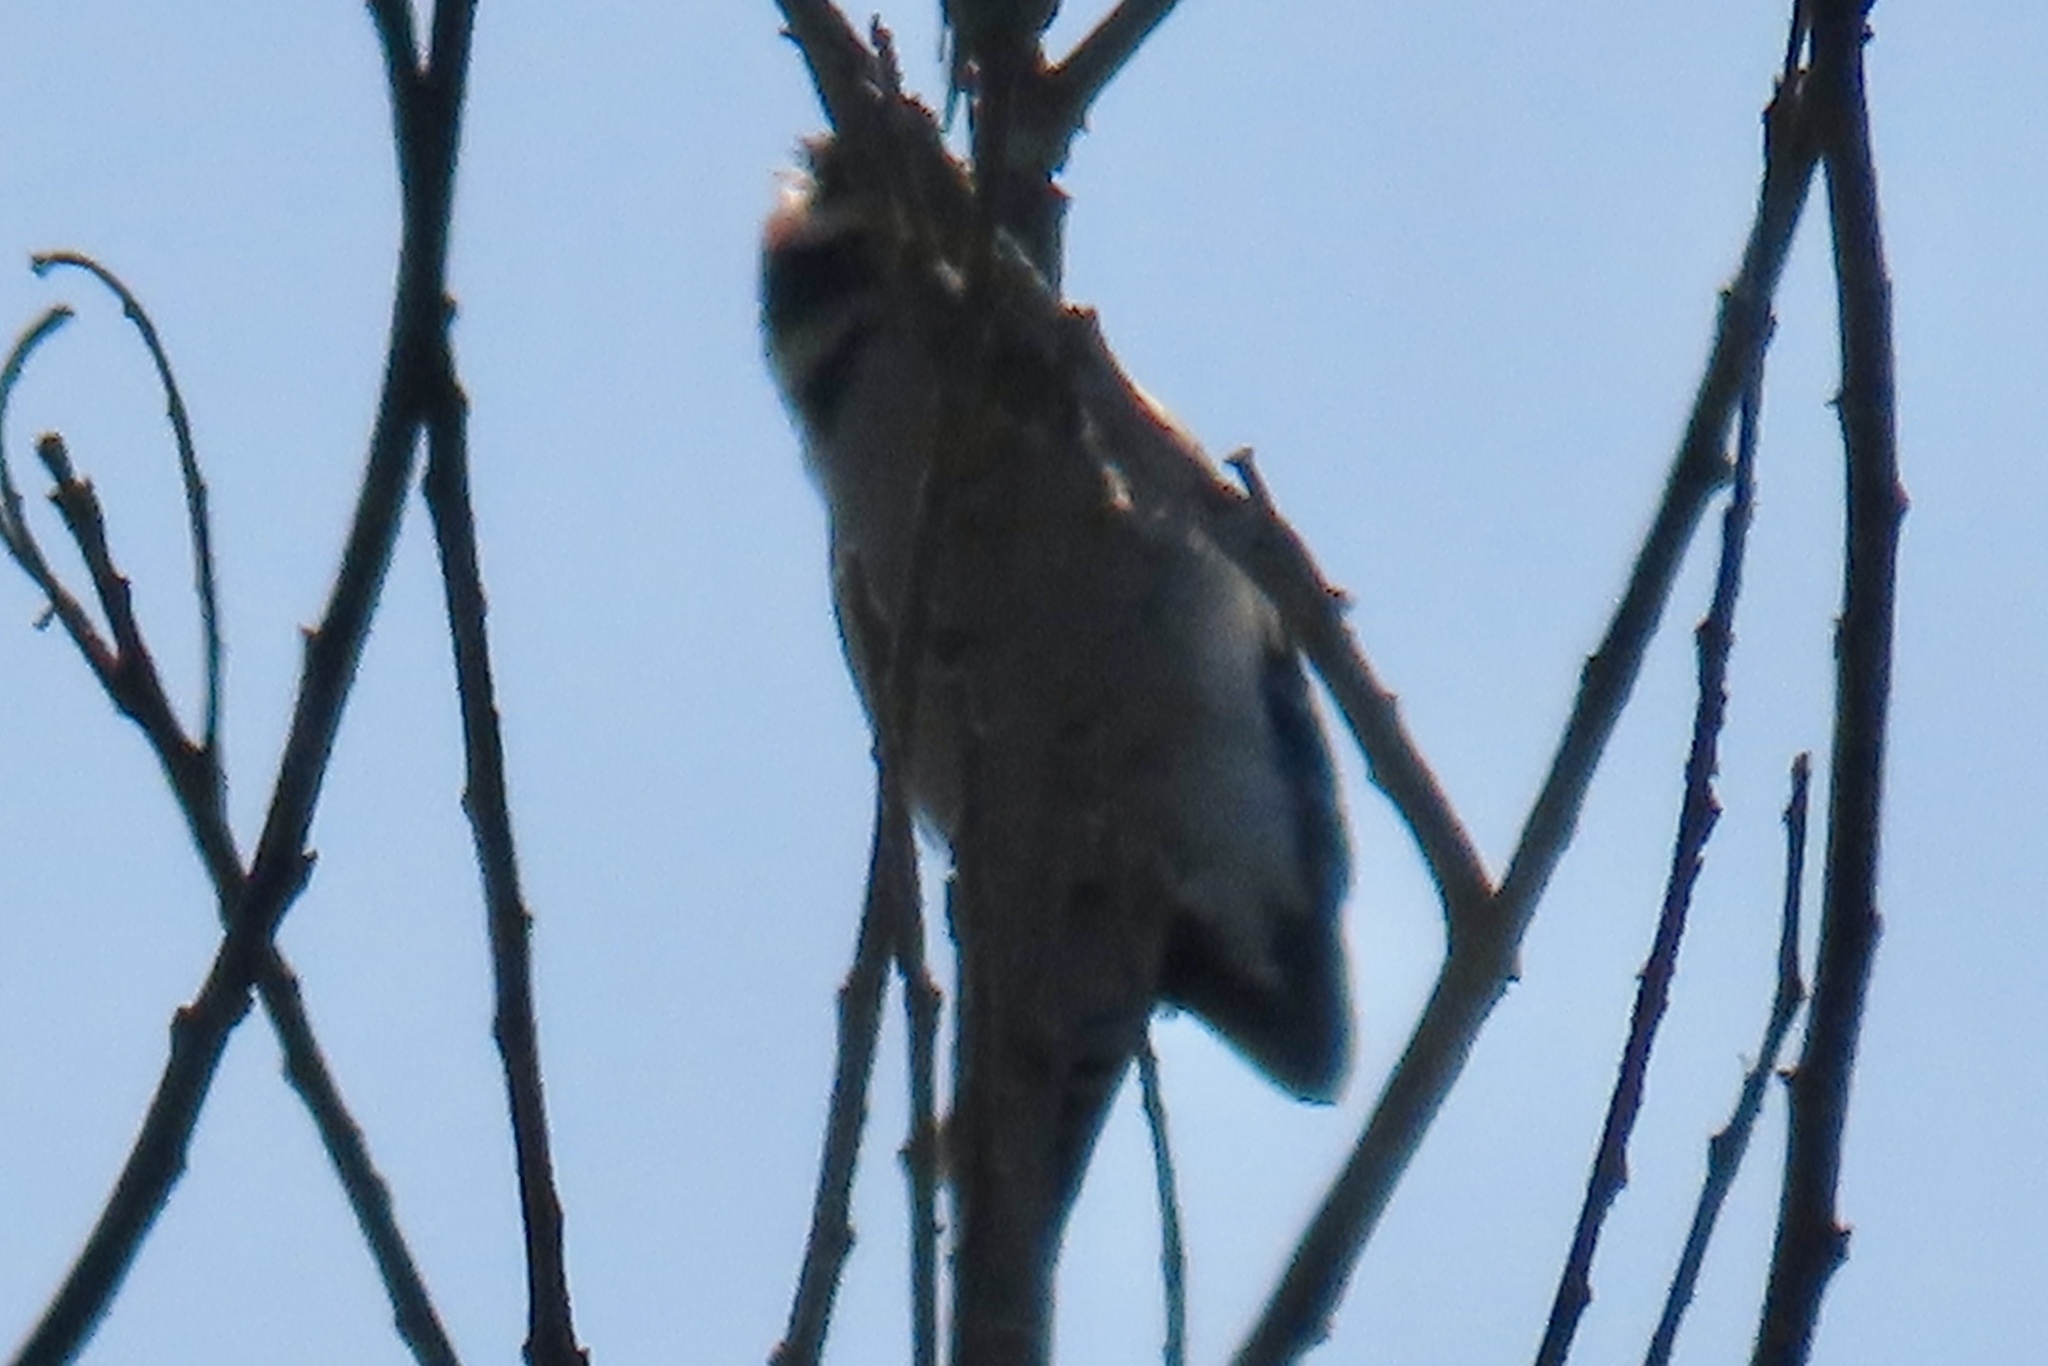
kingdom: Animalia
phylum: Chordata
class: Aves
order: Piciformes
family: Picidae
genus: Dryobates
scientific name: Dryobates pubescens
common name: Downy woodpecker
